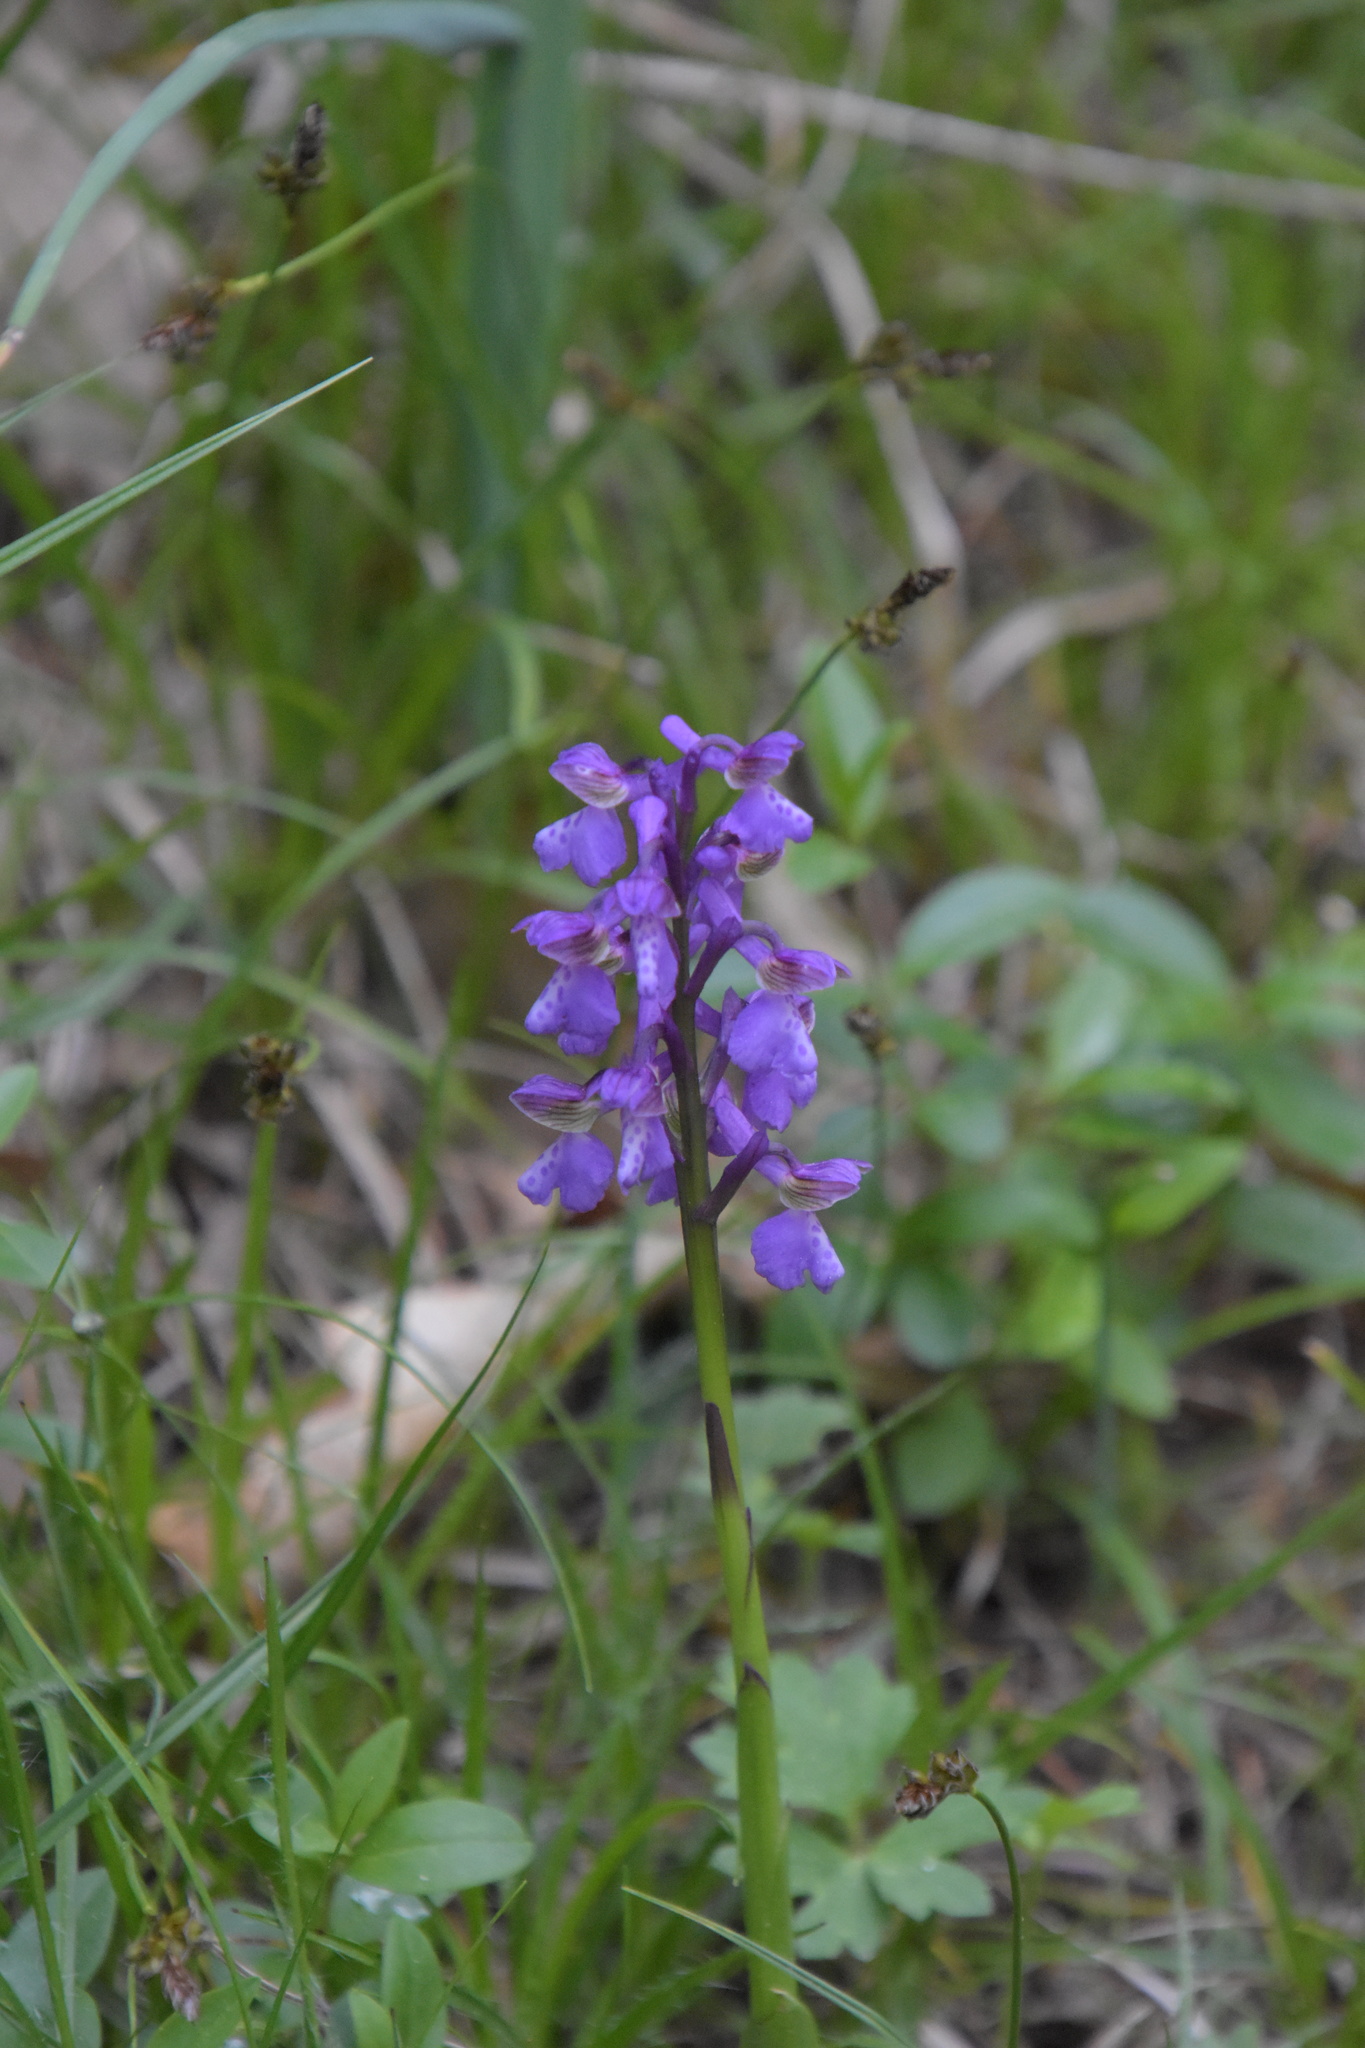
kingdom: Plantae
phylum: Tracheophyta
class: Liliopsida
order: Asparagales
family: Orchidaceae
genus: Anacamptis
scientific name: Anacamptis morio
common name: Green-winged orchid
